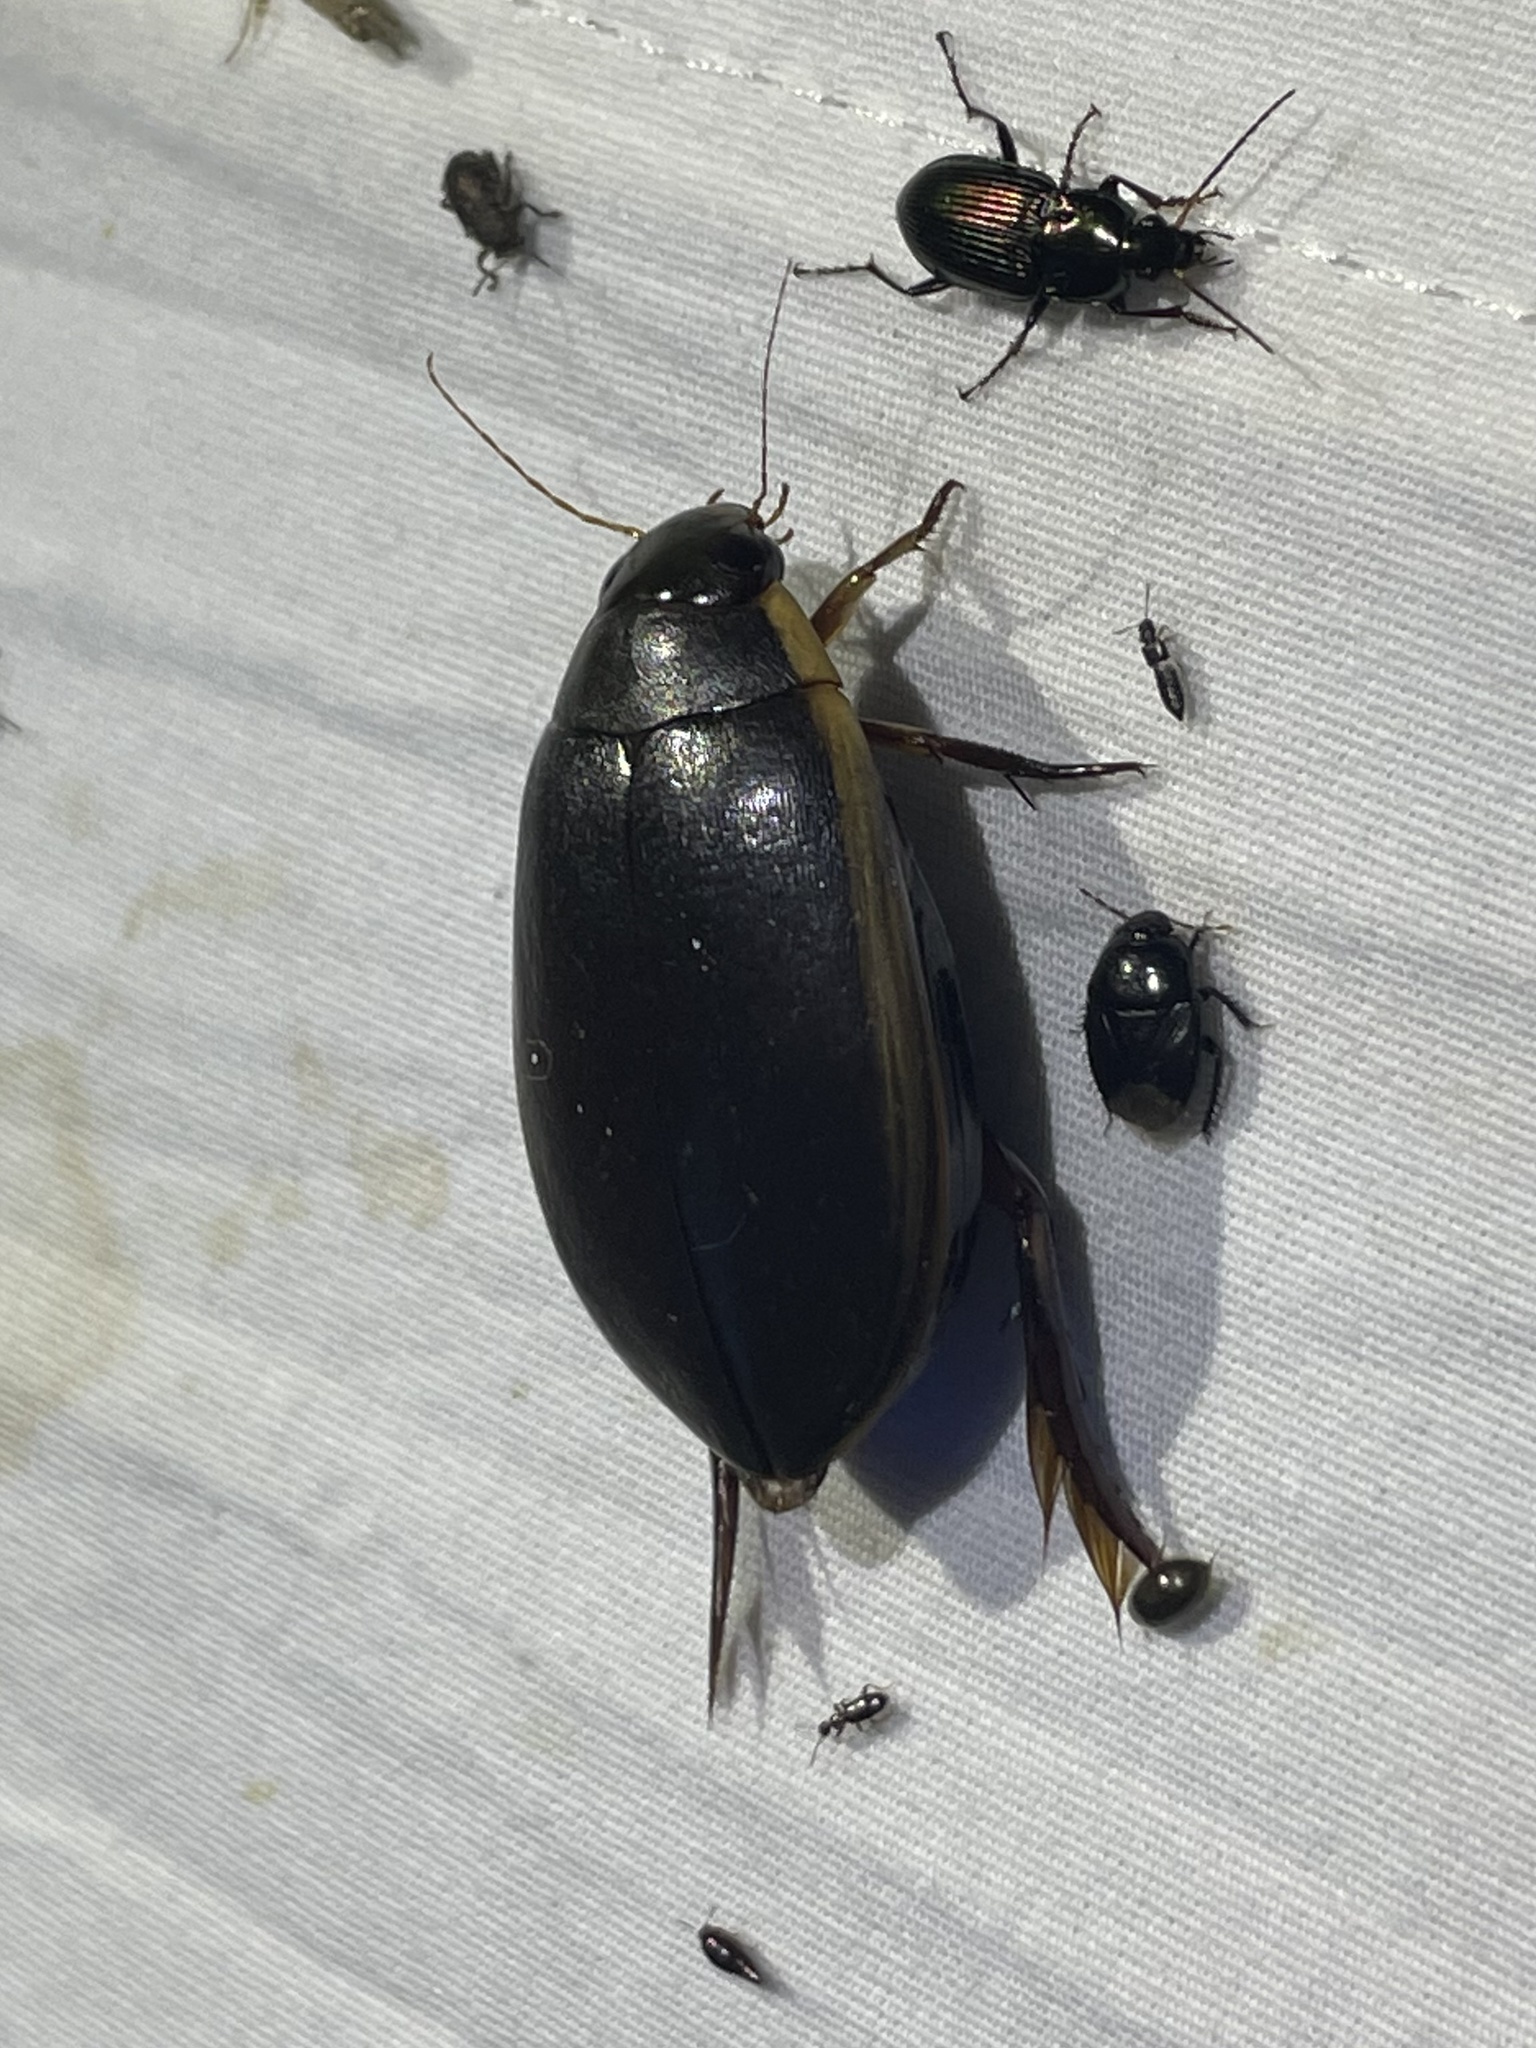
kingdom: Animalia
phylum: Arthropoda
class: Insecta
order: Coleoptera
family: Dytiscidae
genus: Cybister
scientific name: Cybister fimbriolatus
